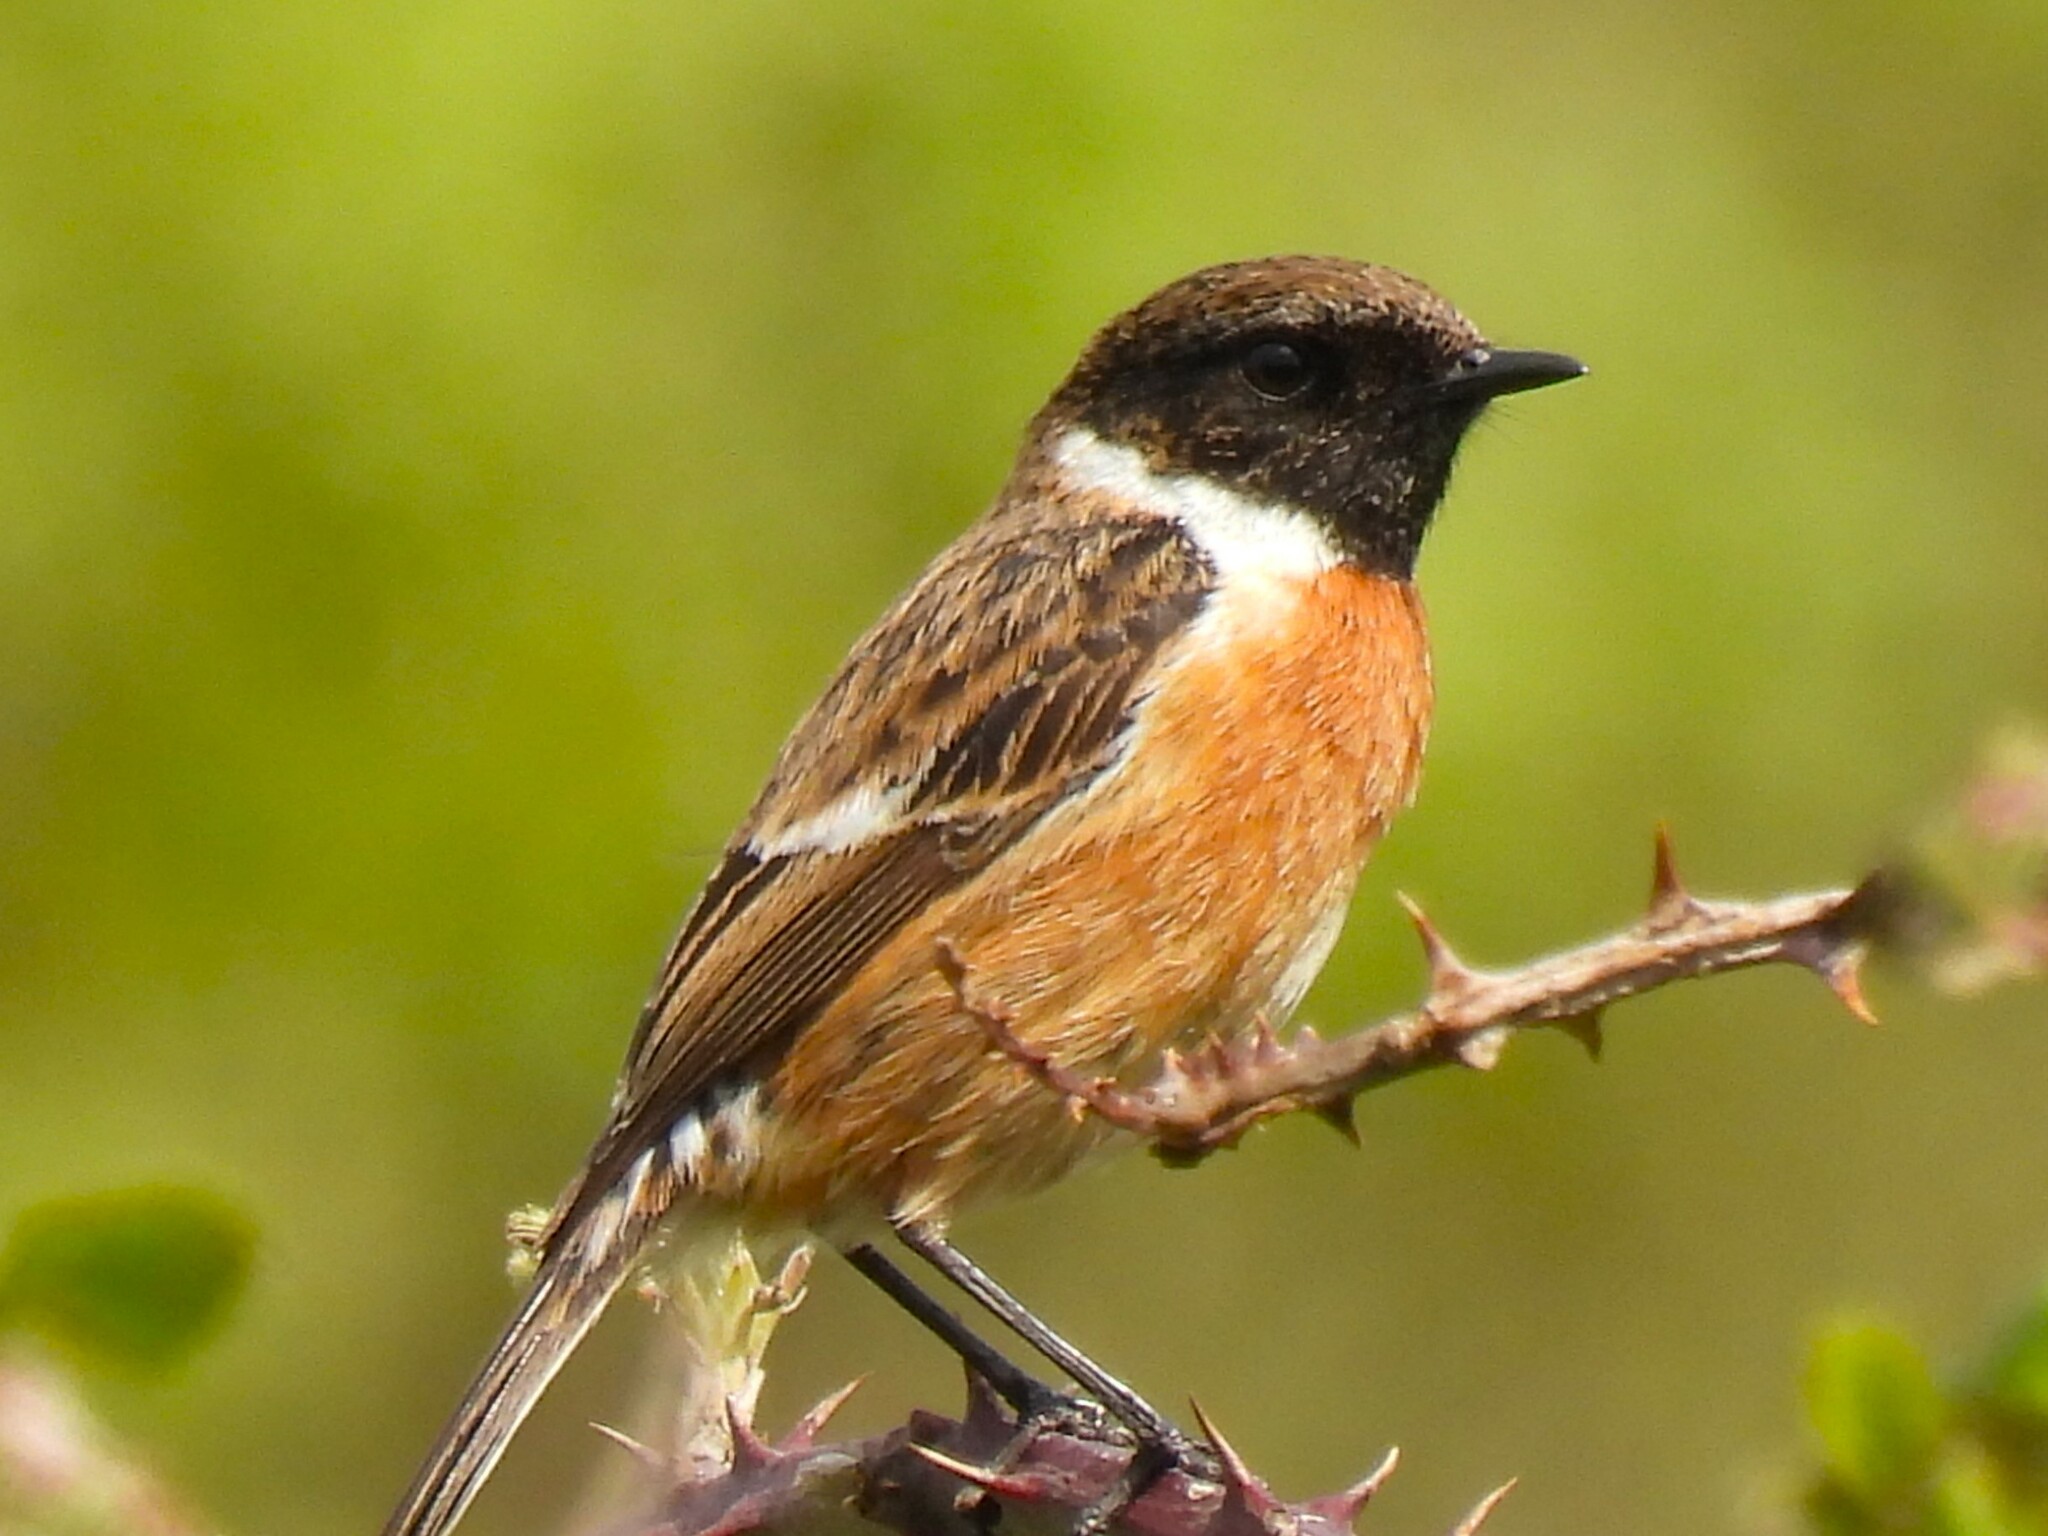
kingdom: Animalia
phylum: Chordata
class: Aves
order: Passeriformes
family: Muscicapidae
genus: Saxicola
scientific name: Saxicola rubicola
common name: European stonechat
